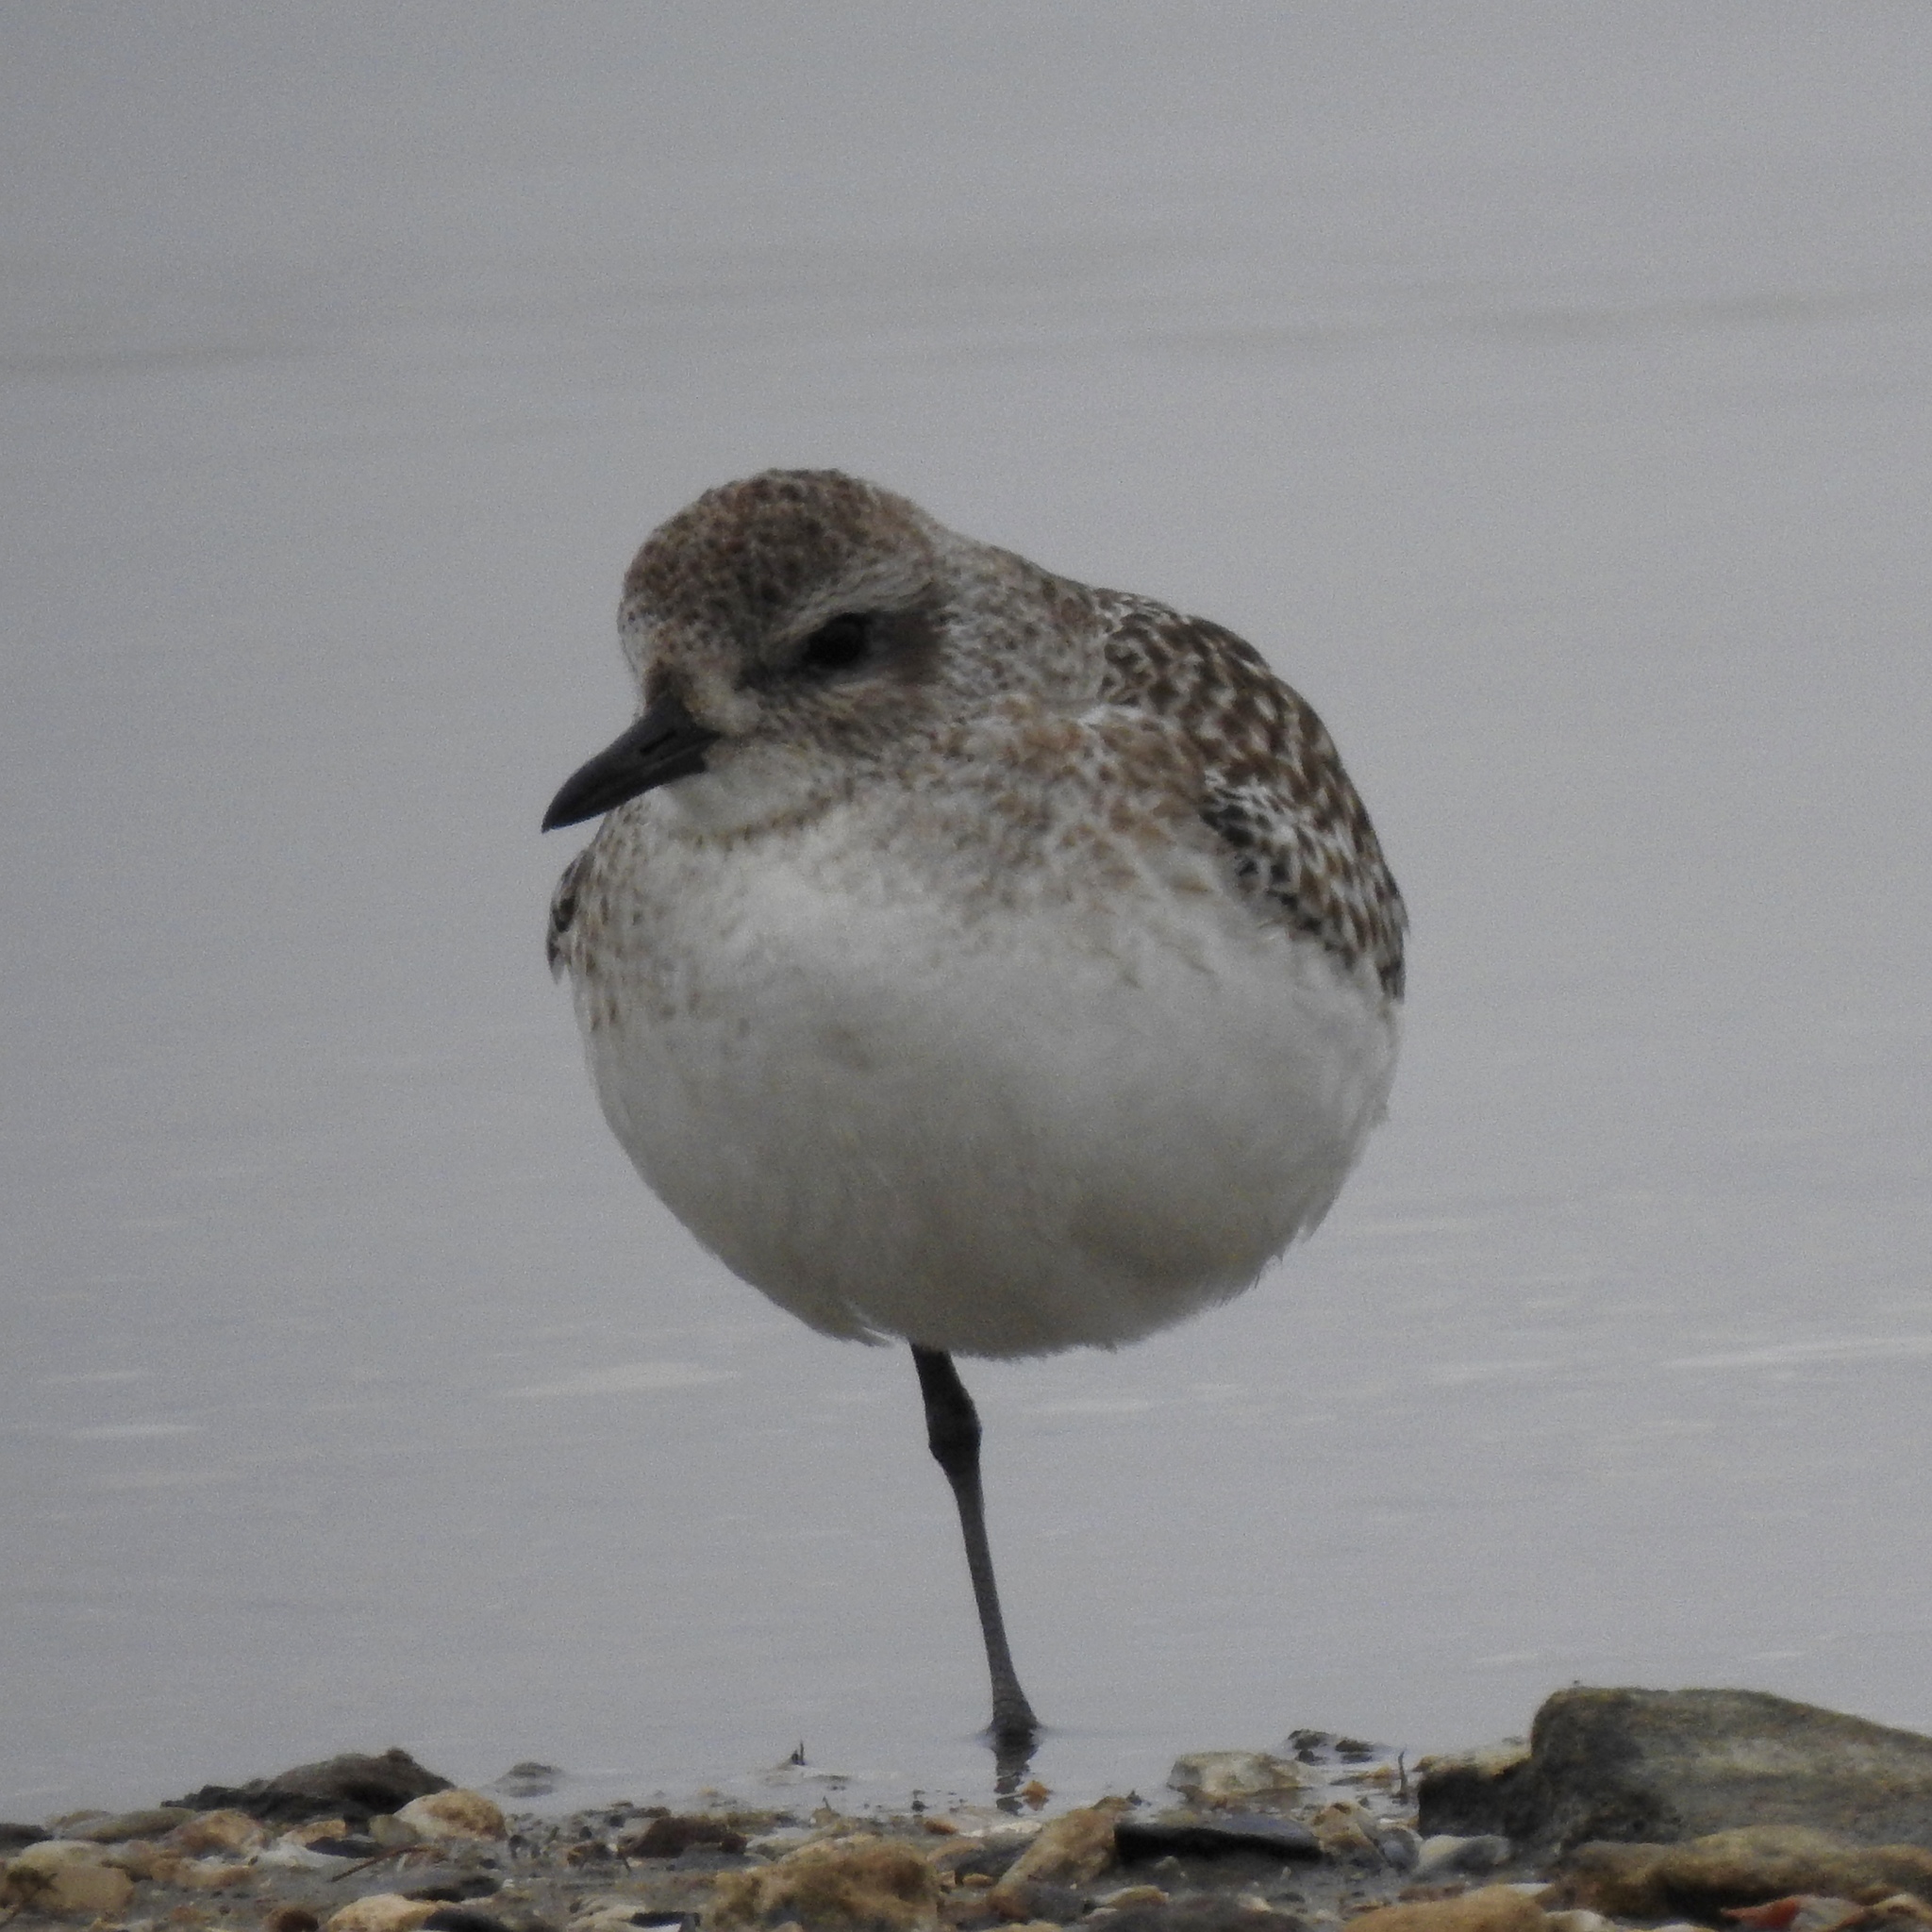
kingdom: Animalia
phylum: Chordata
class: Aves
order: Charadriiformes
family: Charadriidae
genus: Pluvialis
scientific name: Pluvialis squatarola
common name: Grey plover
